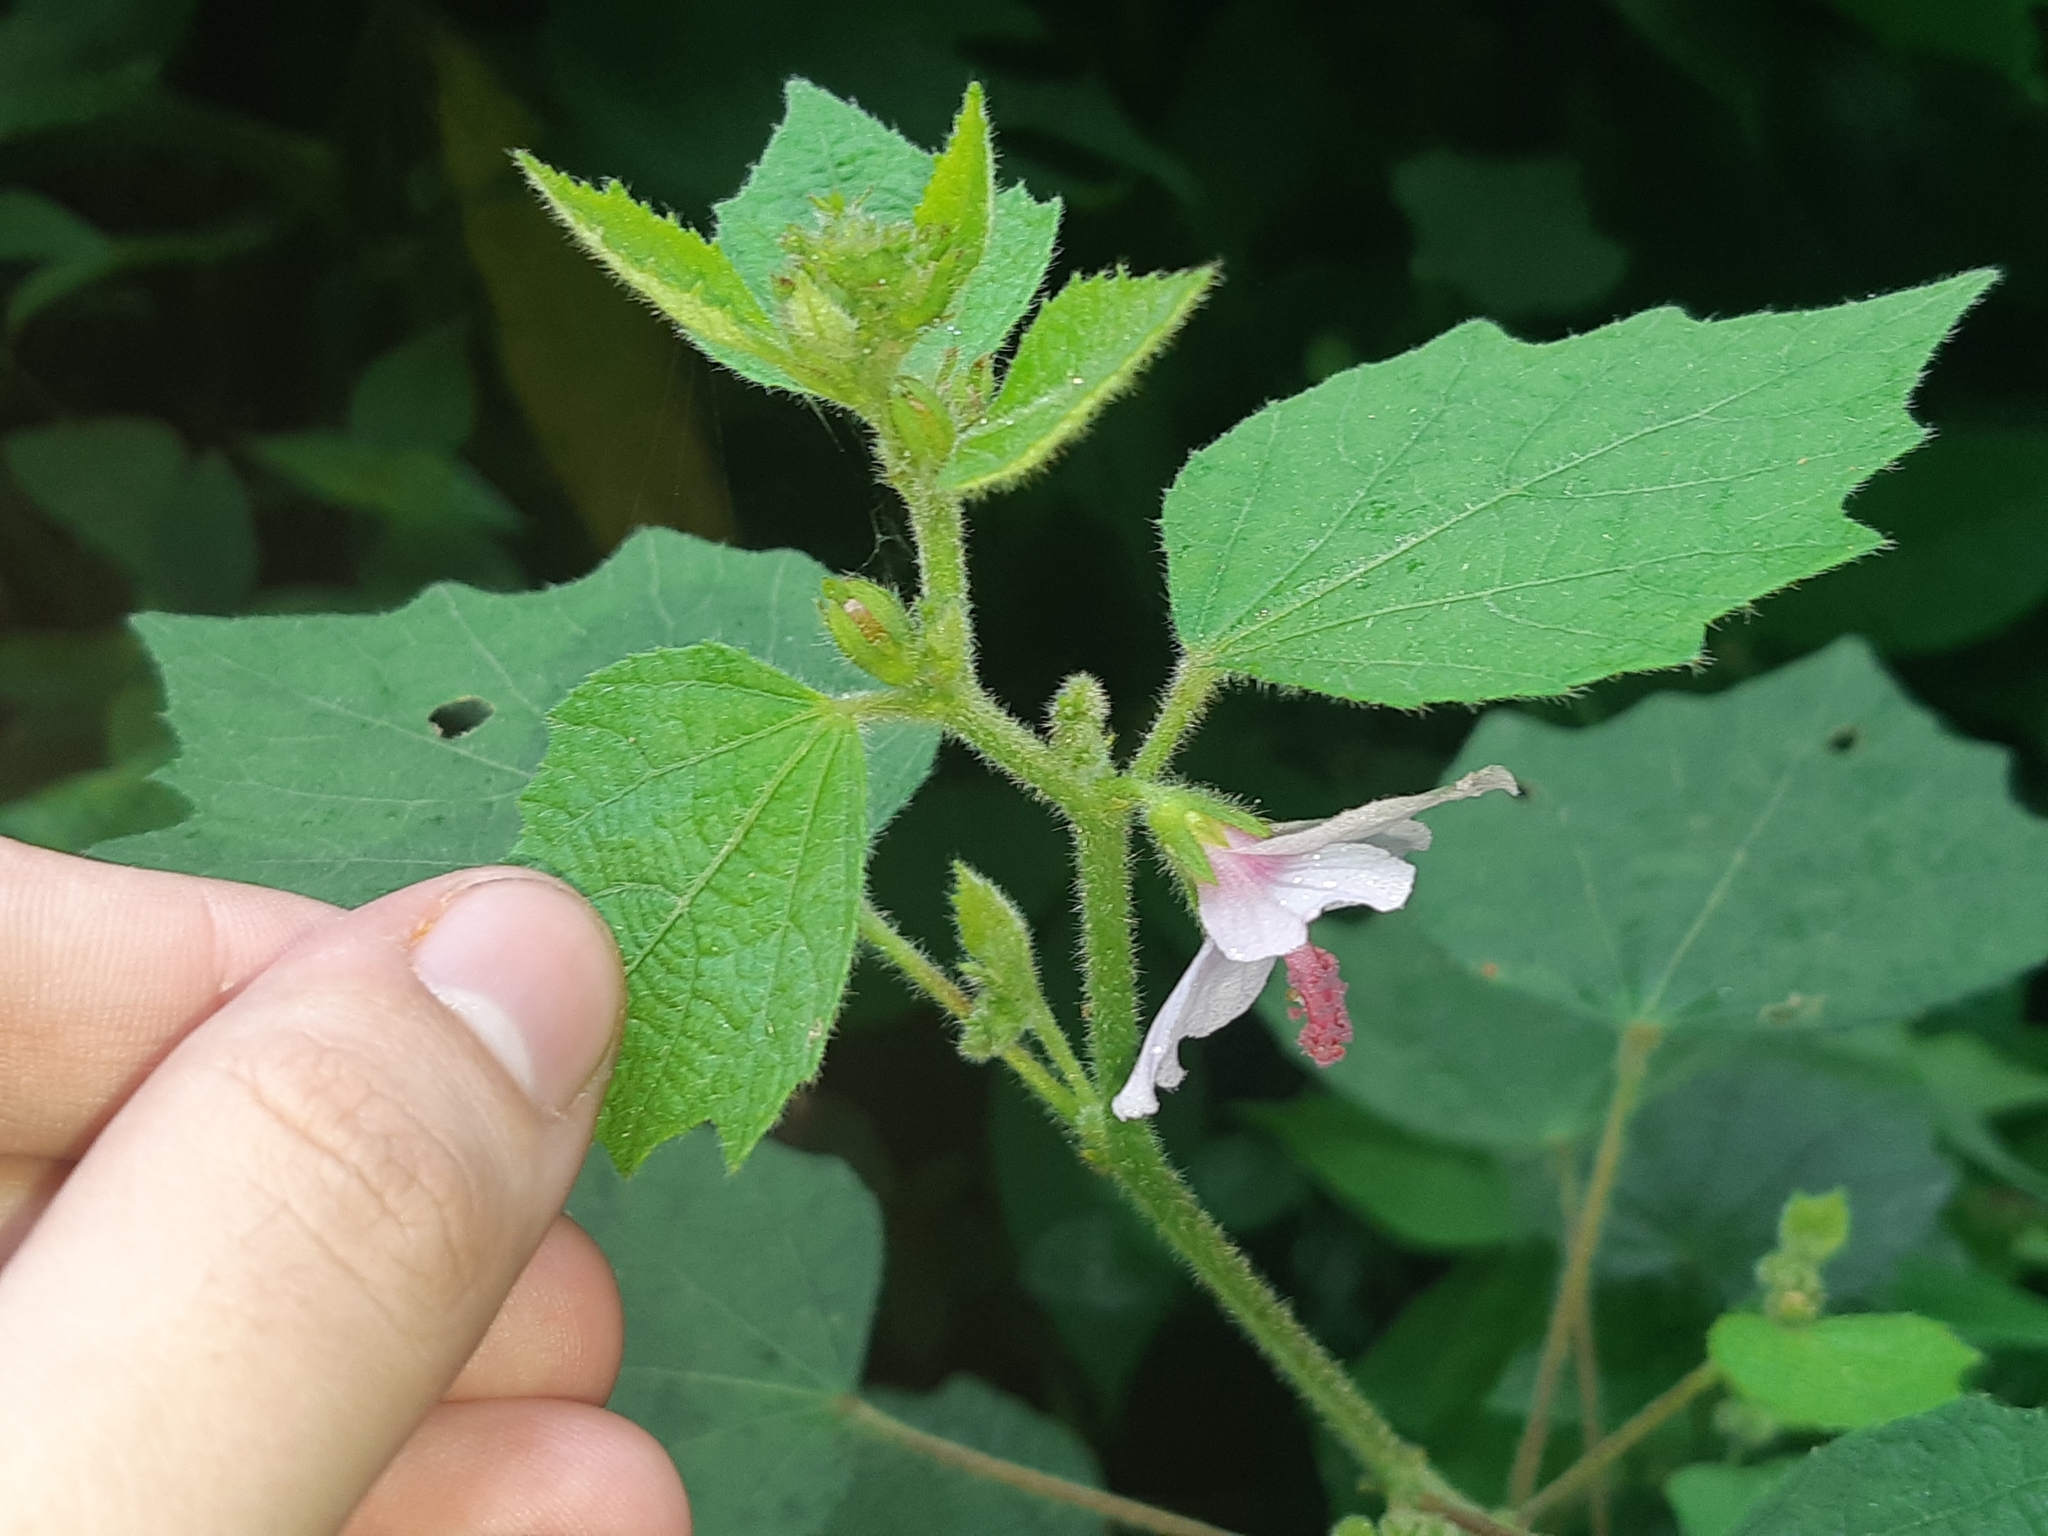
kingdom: Plantae
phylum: Tracheophyta
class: Magnoliopsida
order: Malvales
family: Malvaceae
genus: Urena
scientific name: Urena lobata
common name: Caesarweed
